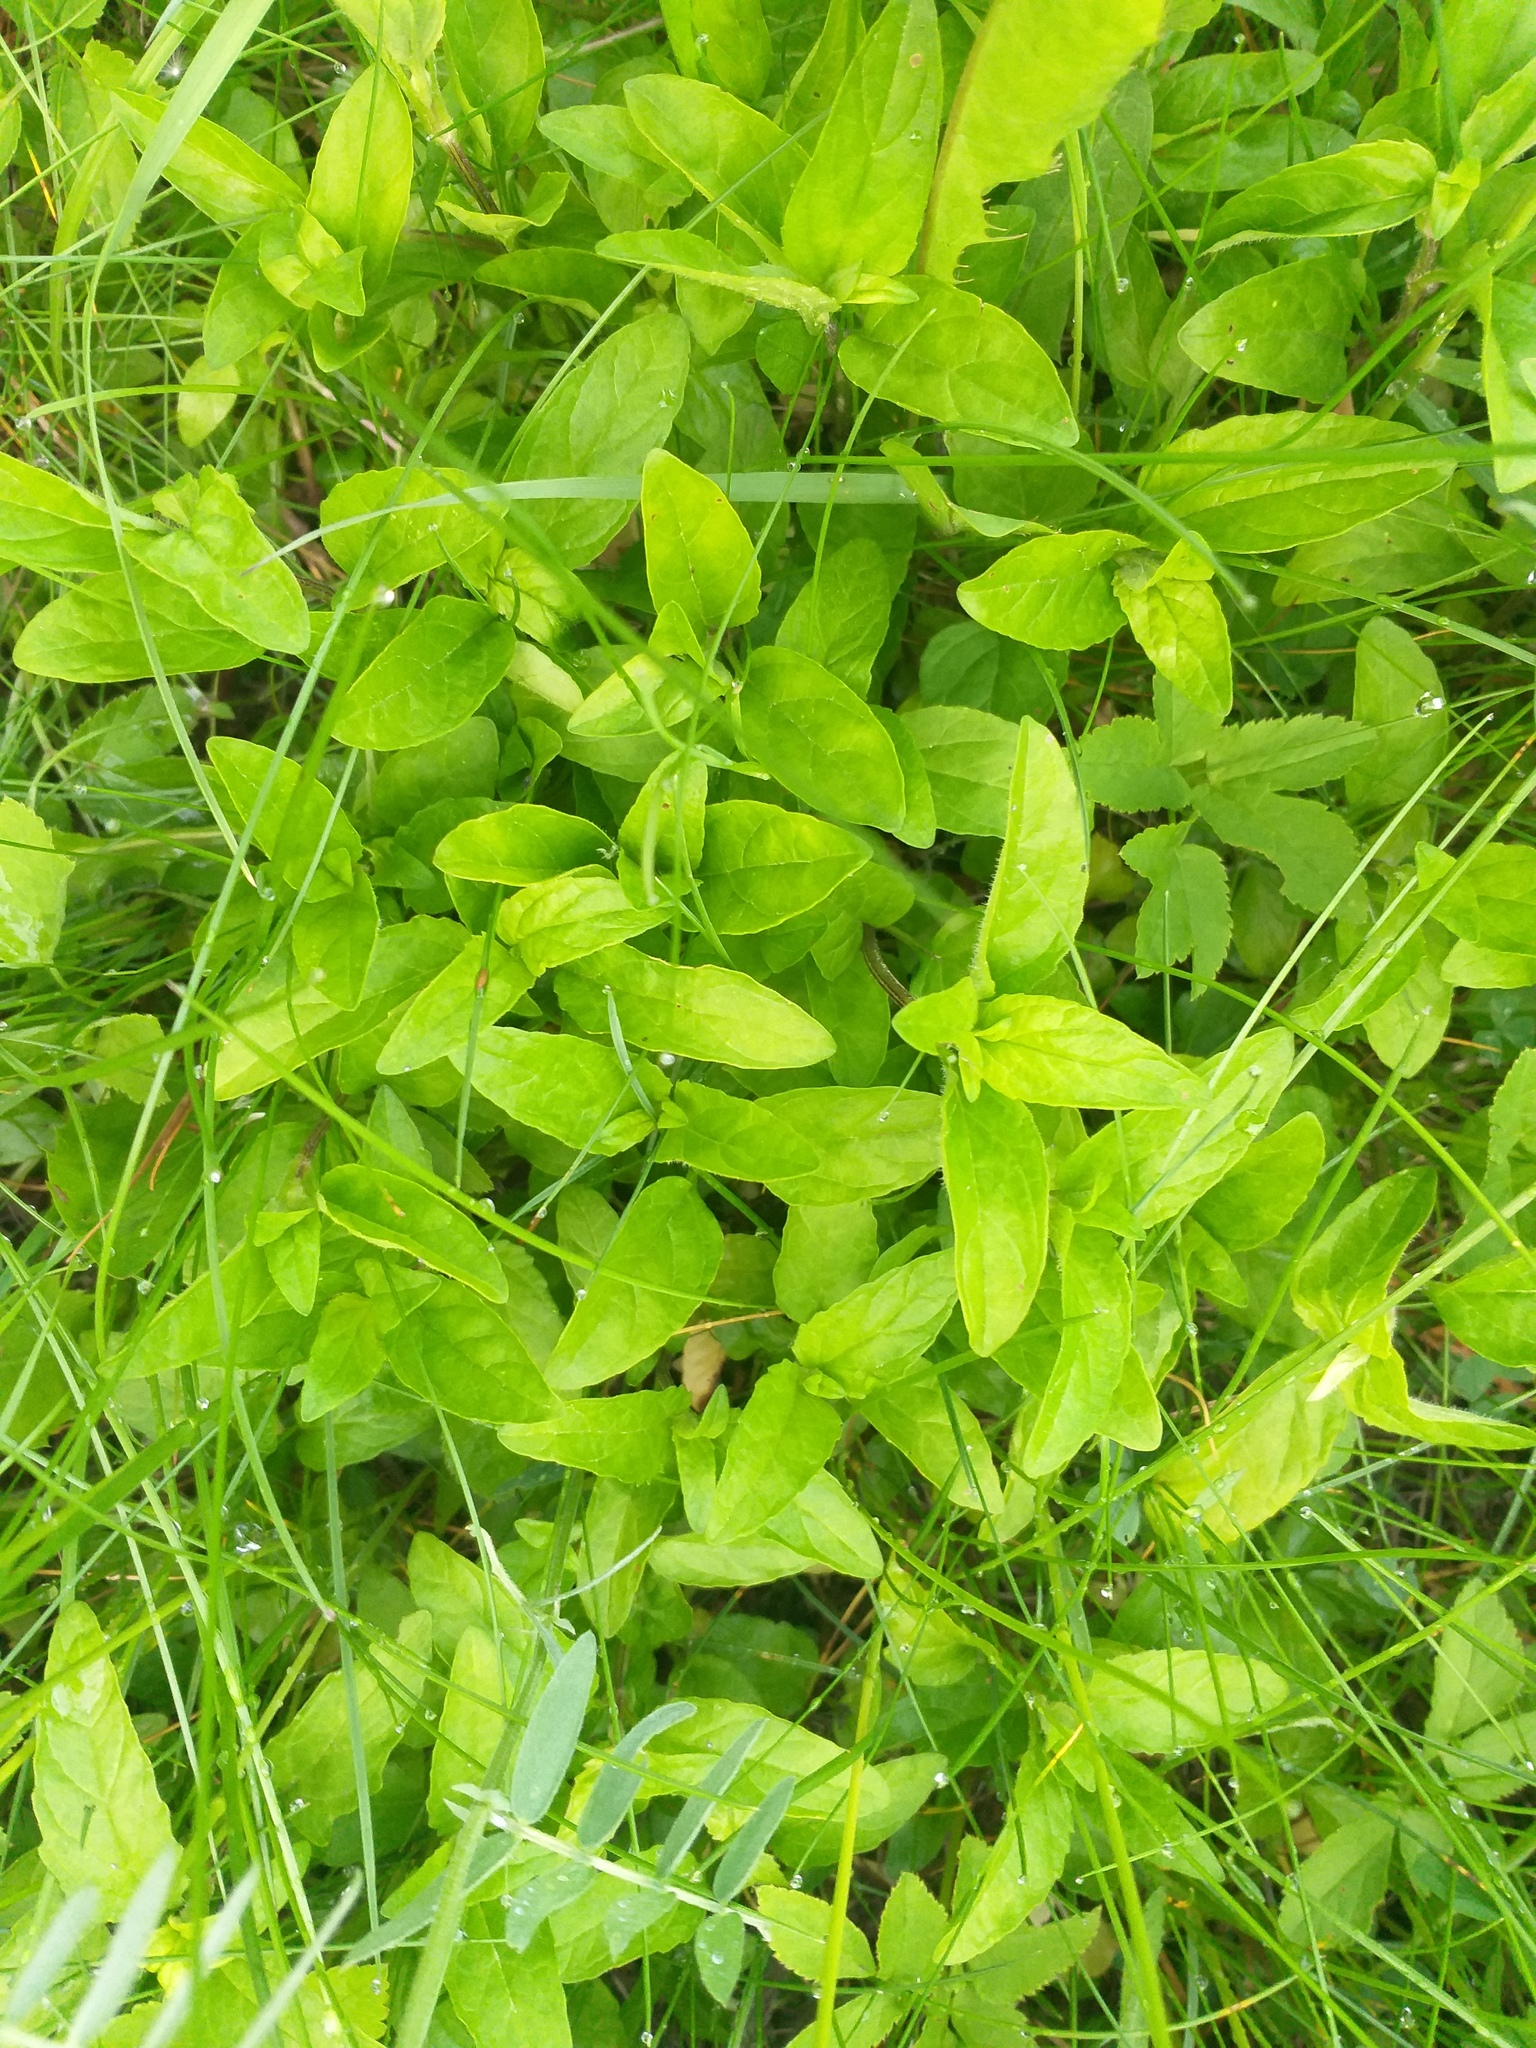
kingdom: Plantae
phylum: Tracheophyta
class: Magnoliopsida
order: Lamiales
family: Lamiaceae
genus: Prunella
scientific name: Prunella vulgaris
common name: Heal-all
